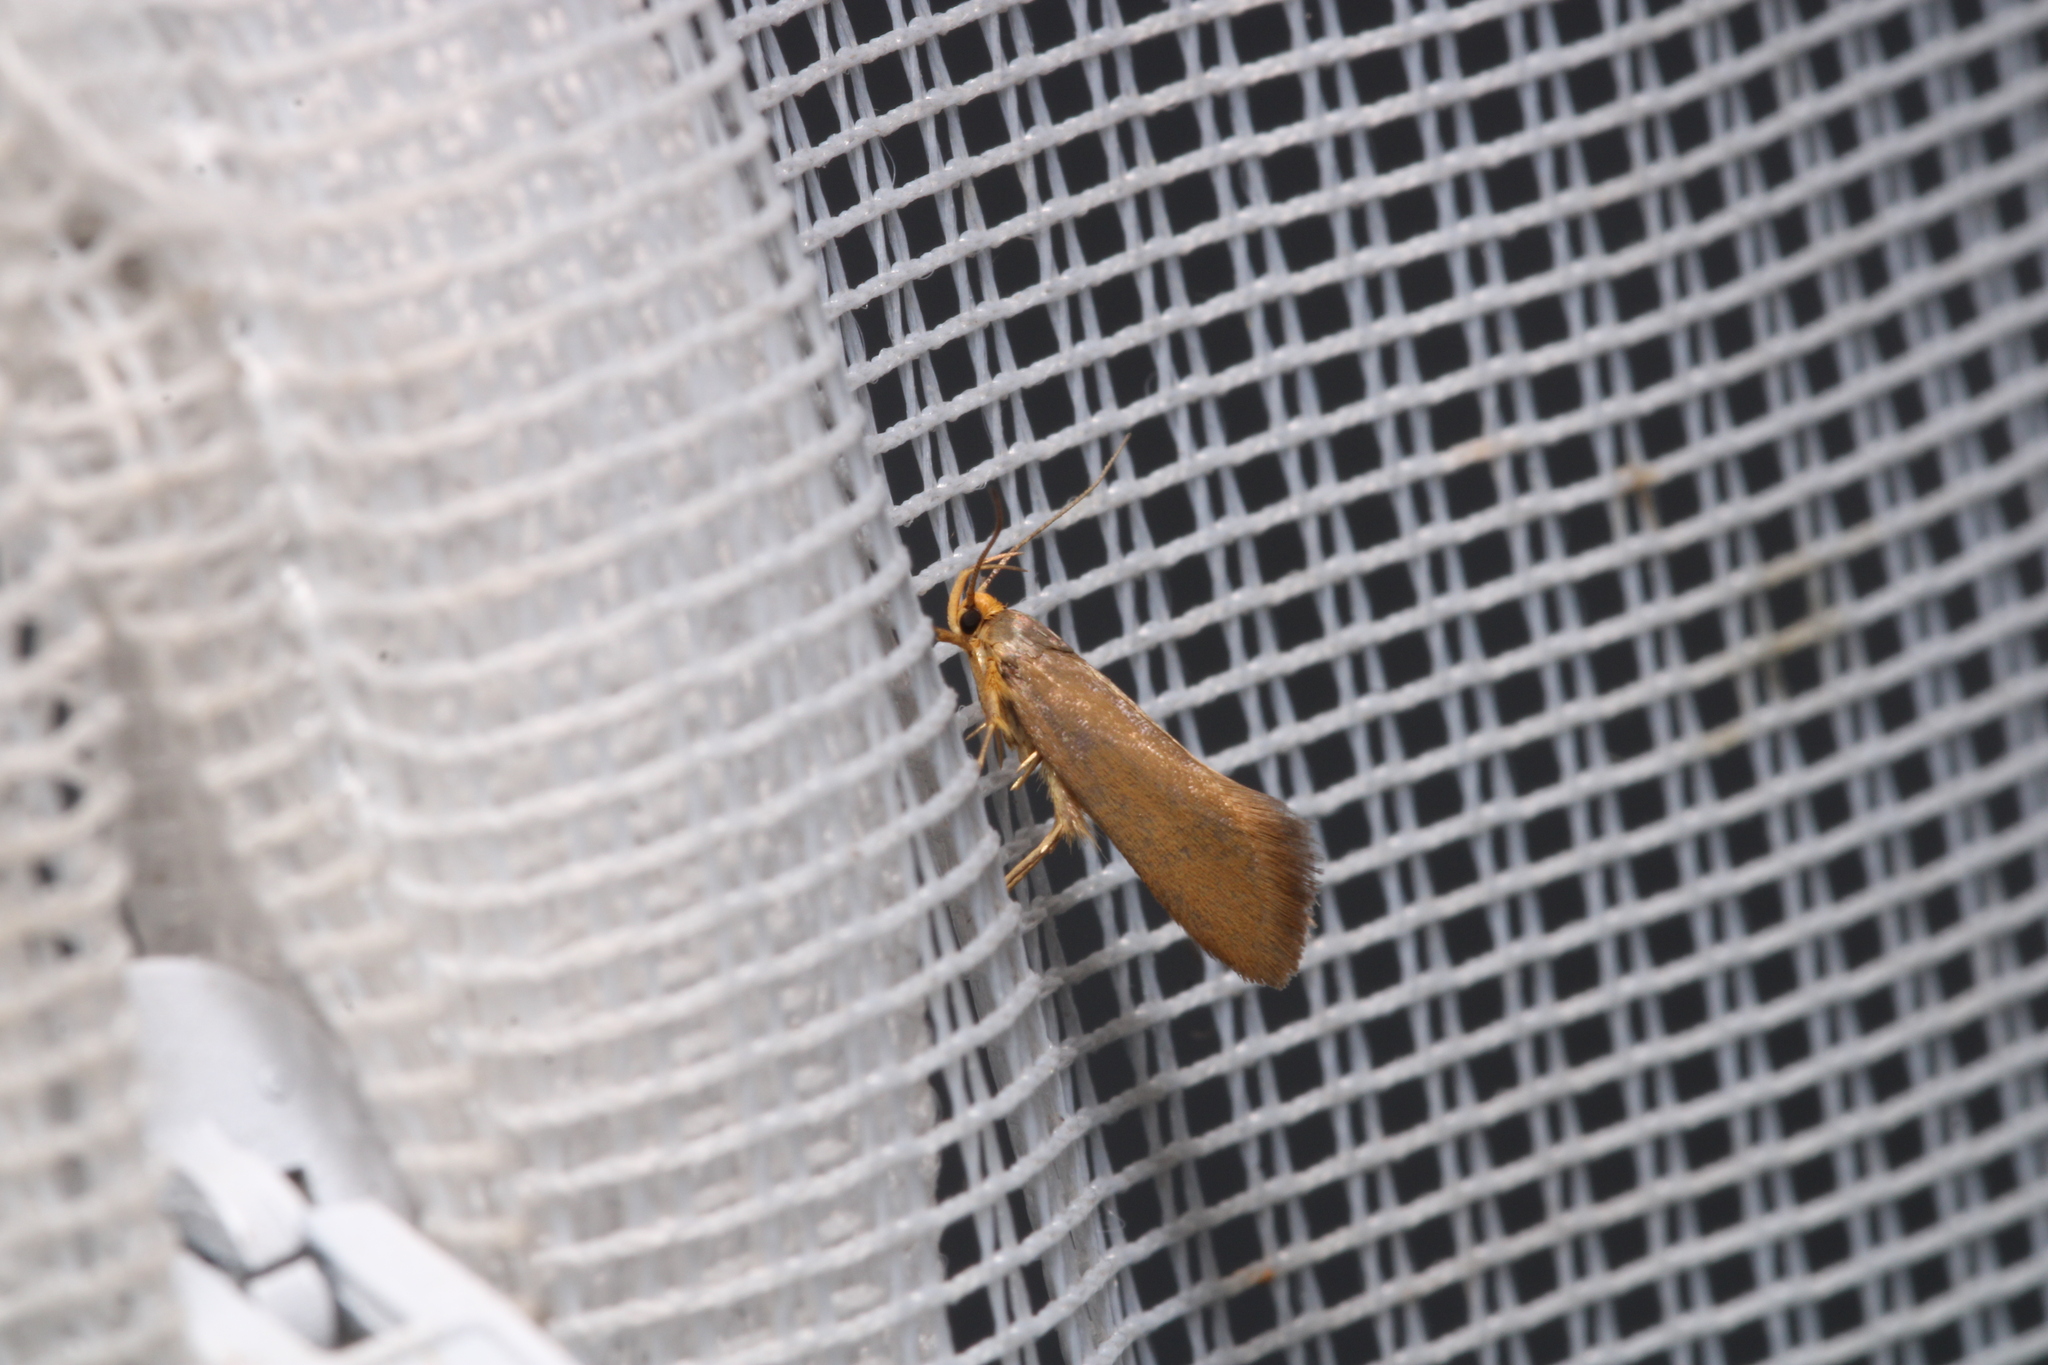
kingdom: Animalia
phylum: Arthropoda
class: Insecta
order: Lepidoptera
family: Oecophoridae
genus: Borkhausenia
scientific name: Borkhausenia Crassa unitella
